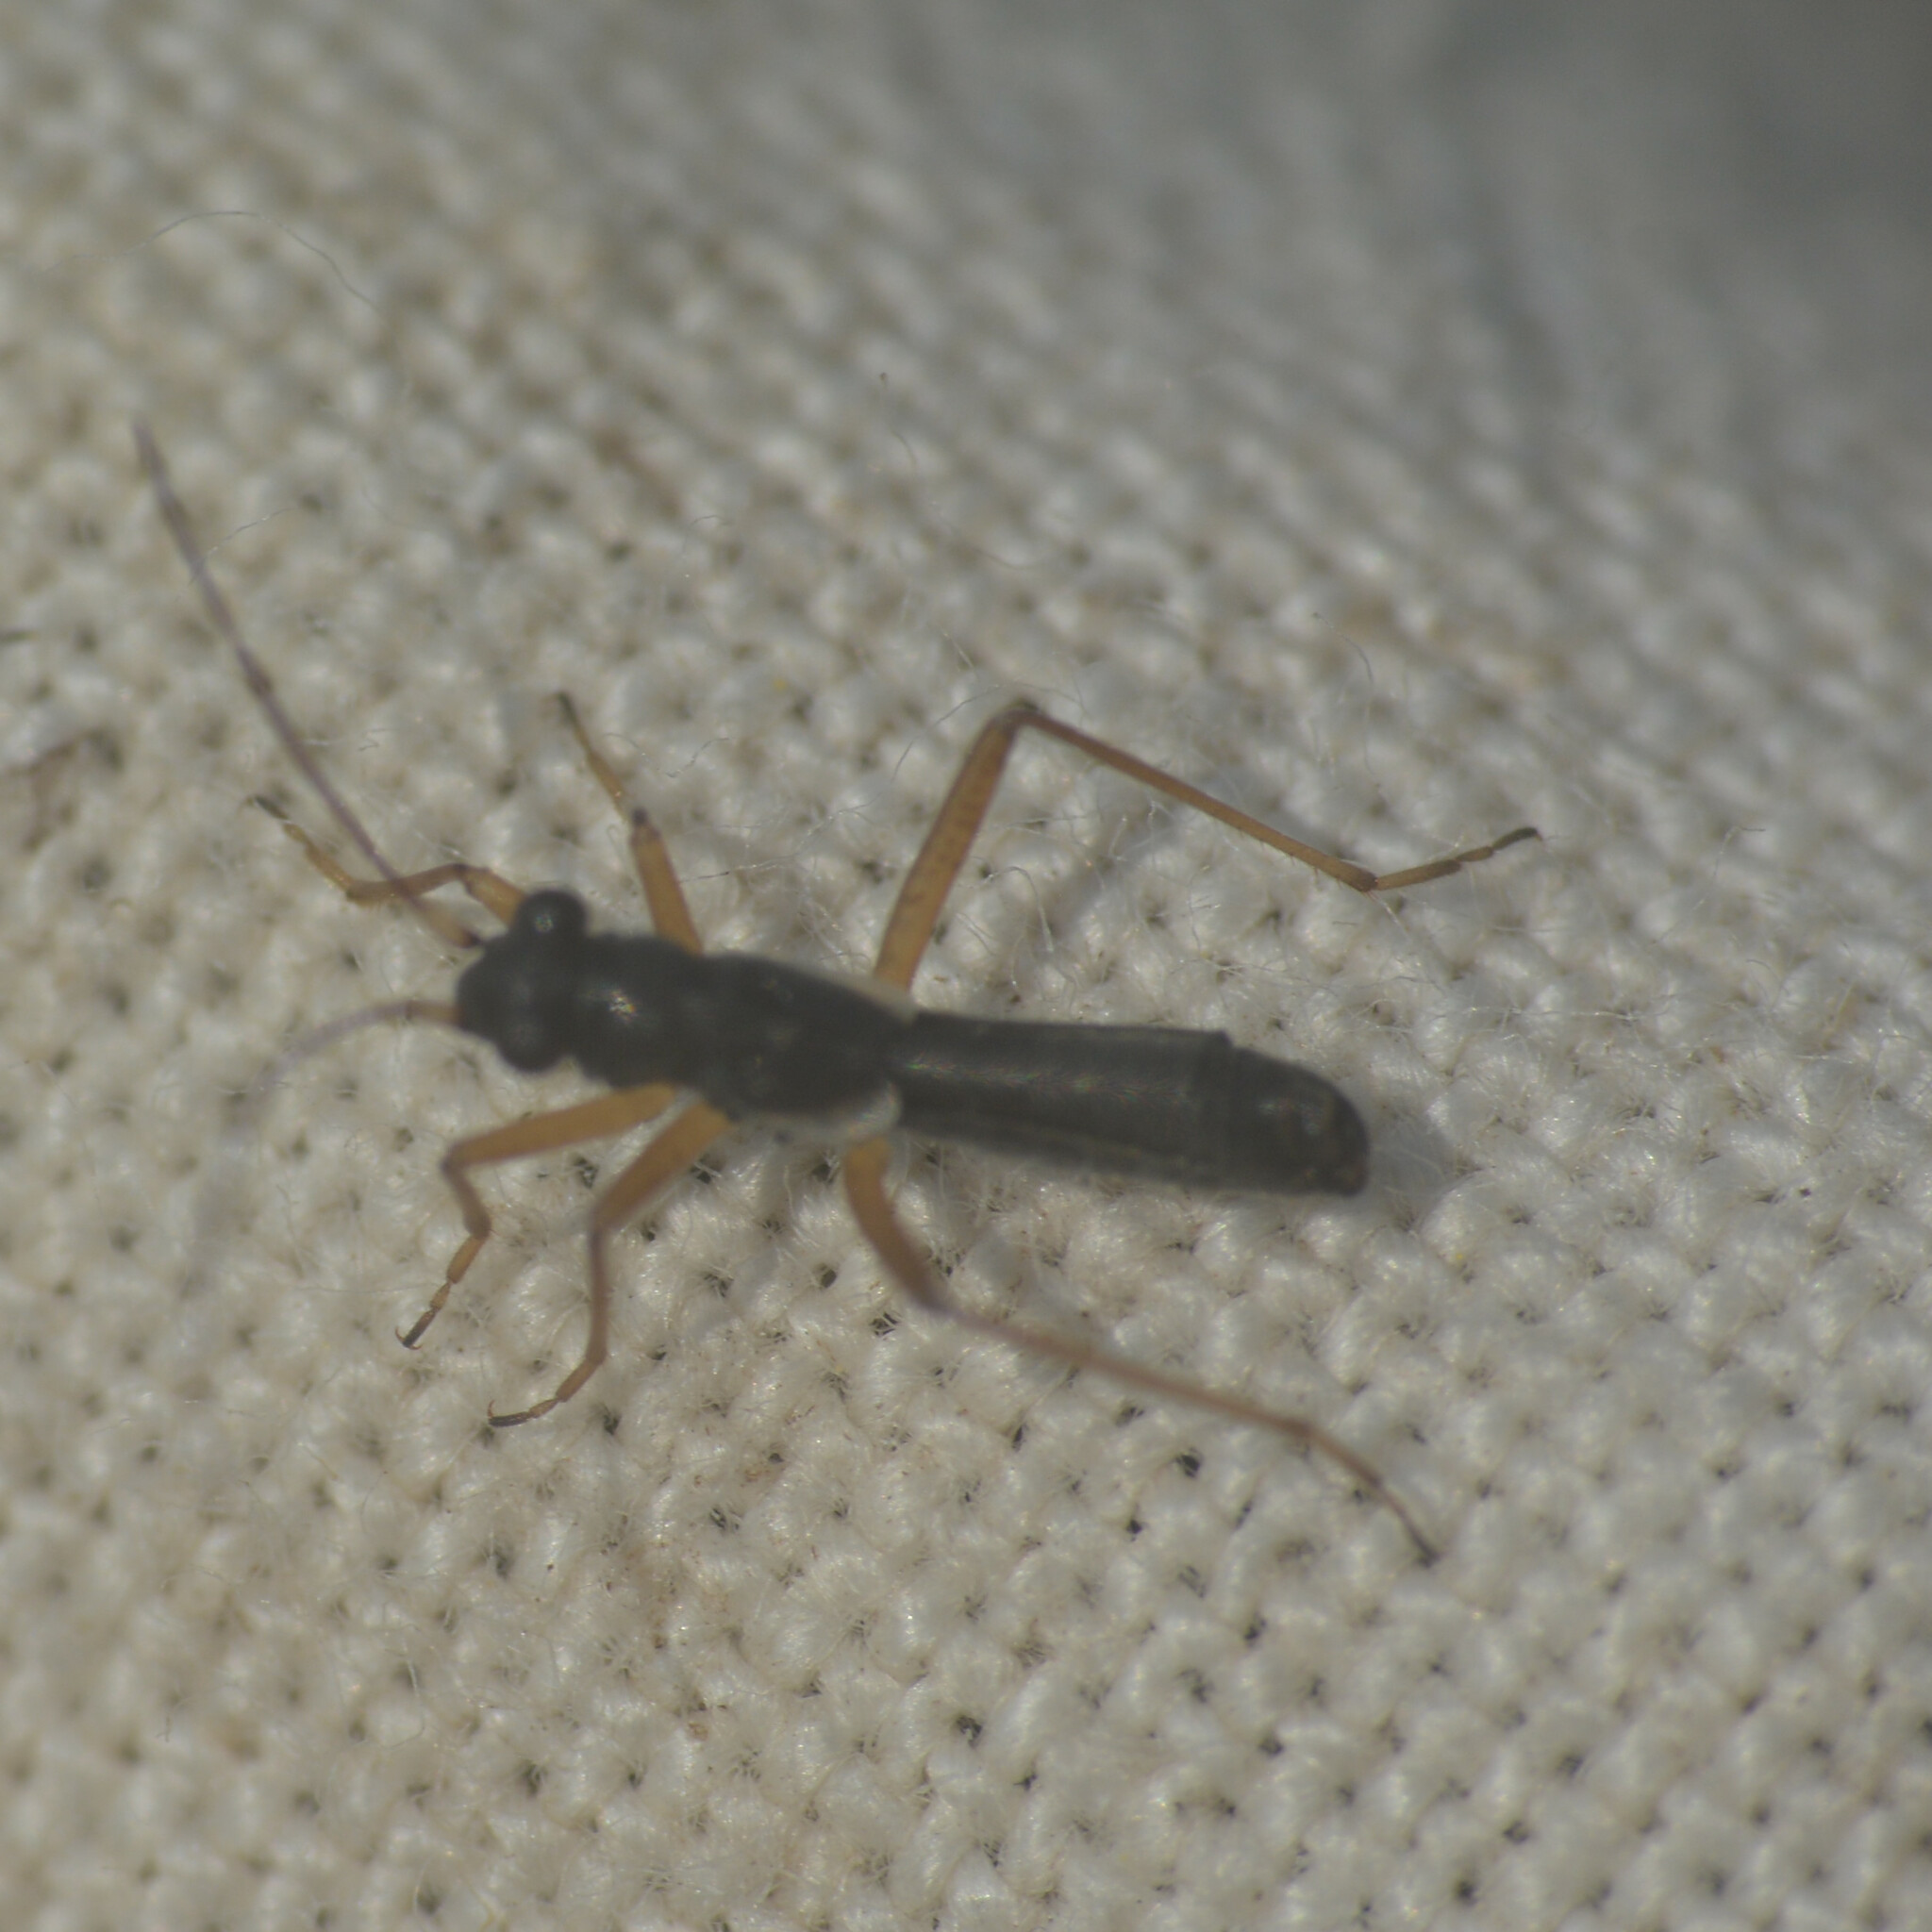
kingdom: Animalia
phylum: Arthropoda
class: Insecta
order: Hemiptera
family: Miridae
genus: Pithanus
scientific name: Pithanus maerkelii
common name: Plant bug
